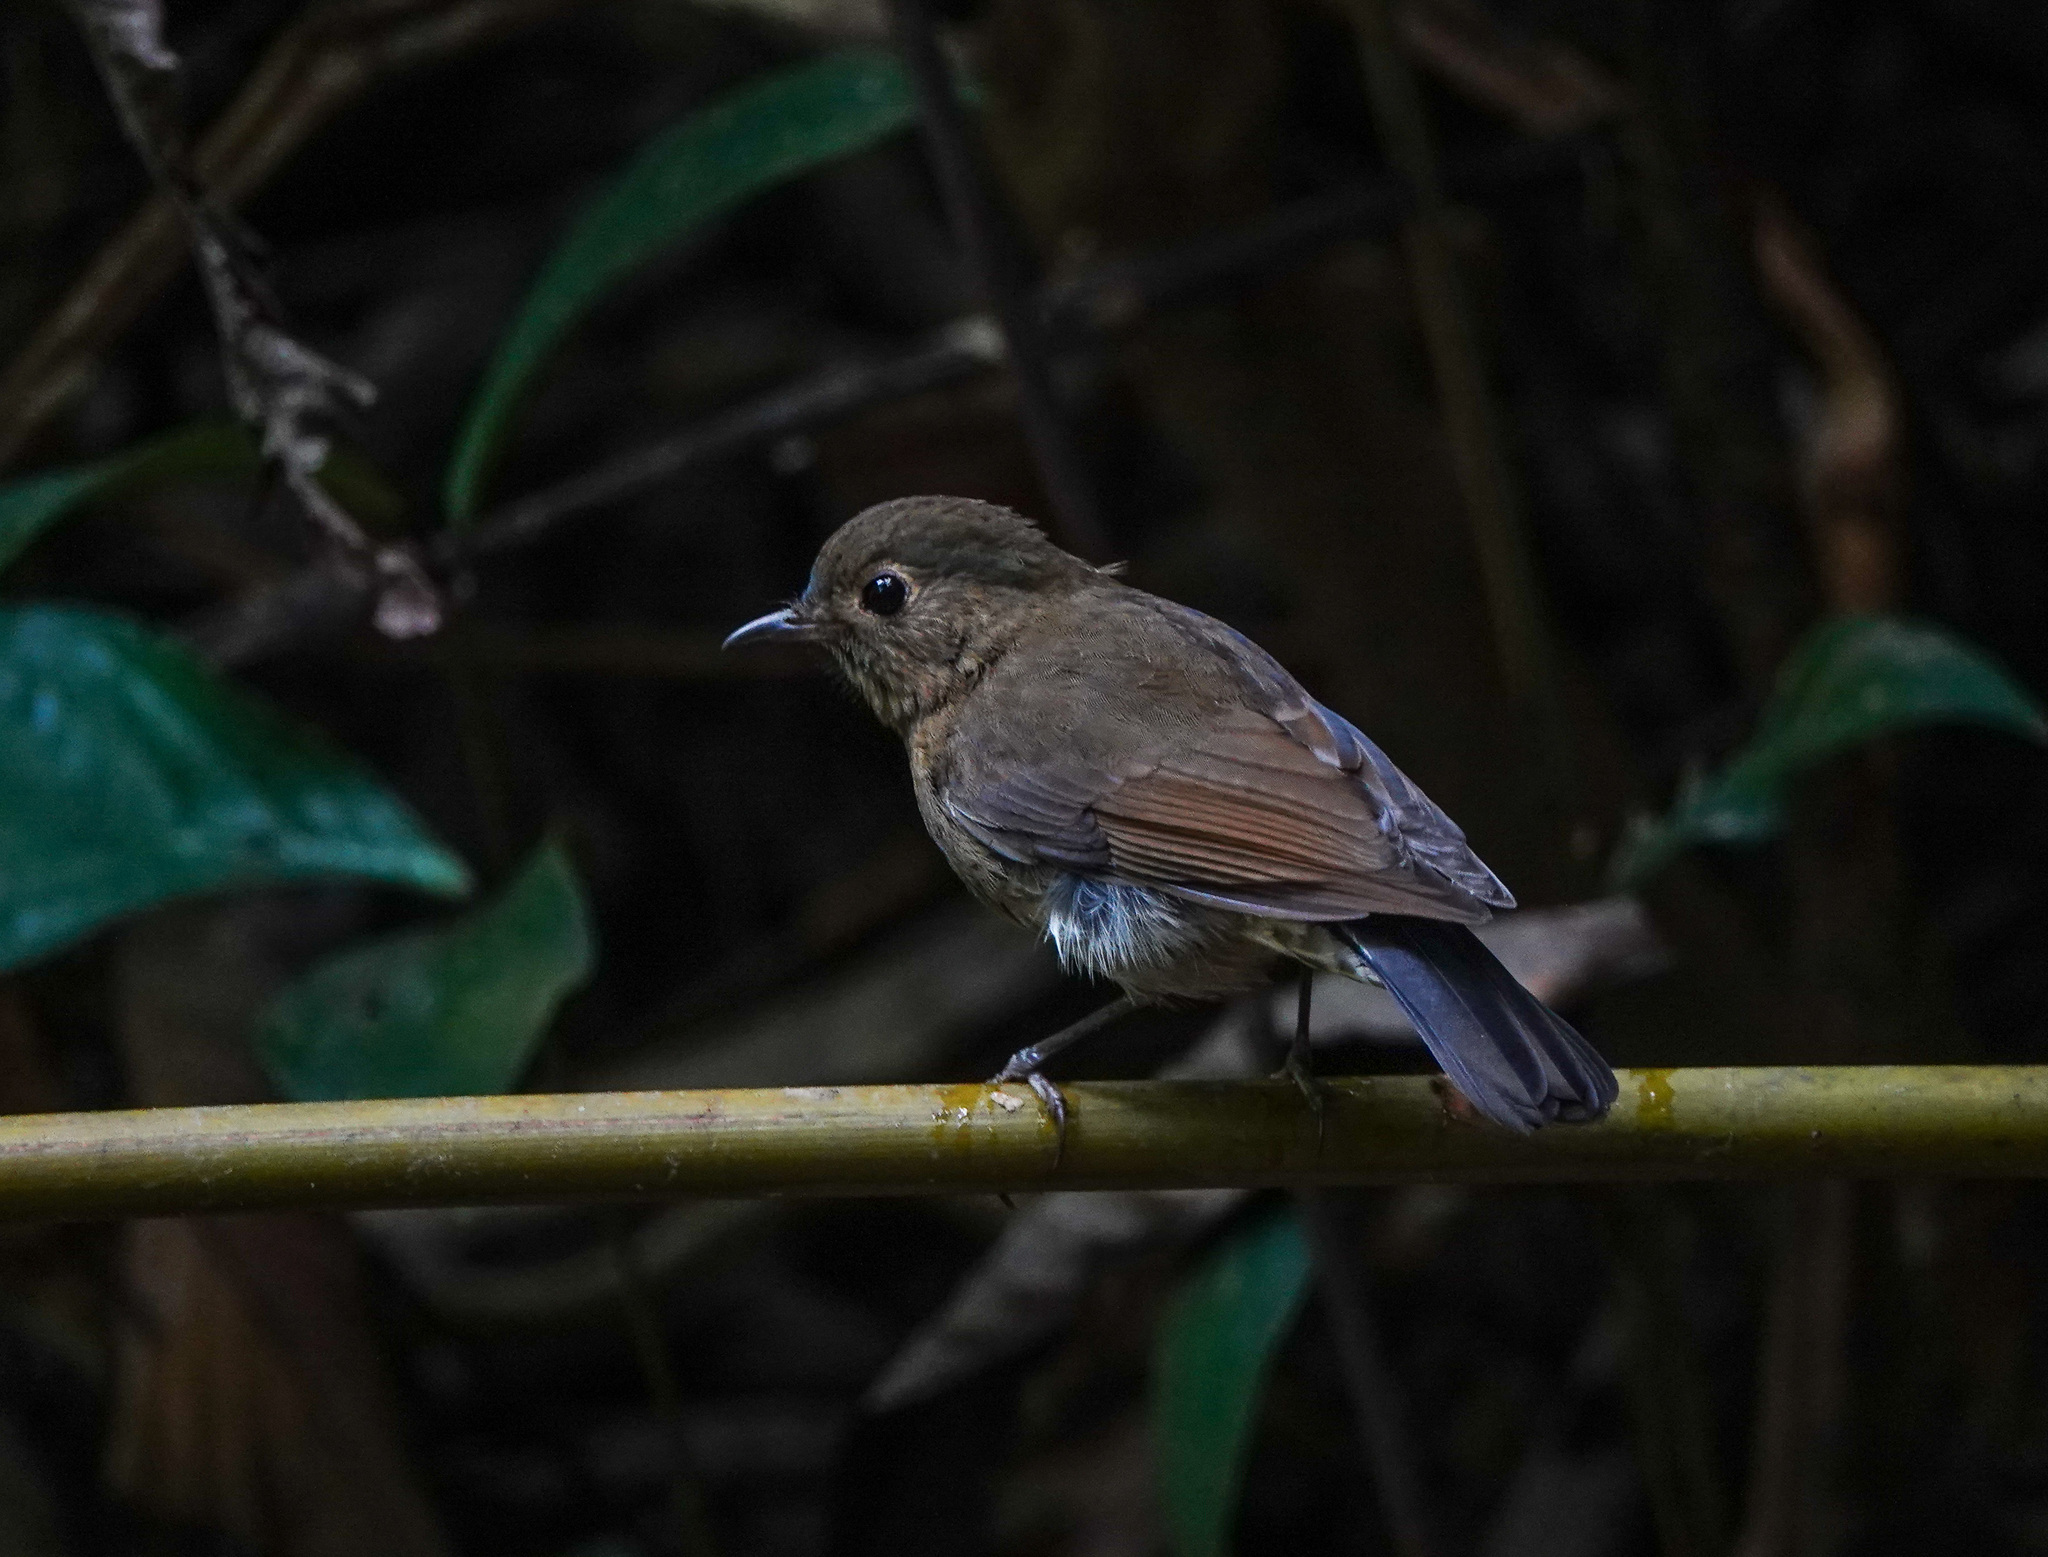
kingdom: Animalia
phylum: Chordata
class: Aves
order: Passeriformes
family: Muscicapidae
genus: Myiomela
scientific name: Myiomela leucura
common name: White-tailed robin
